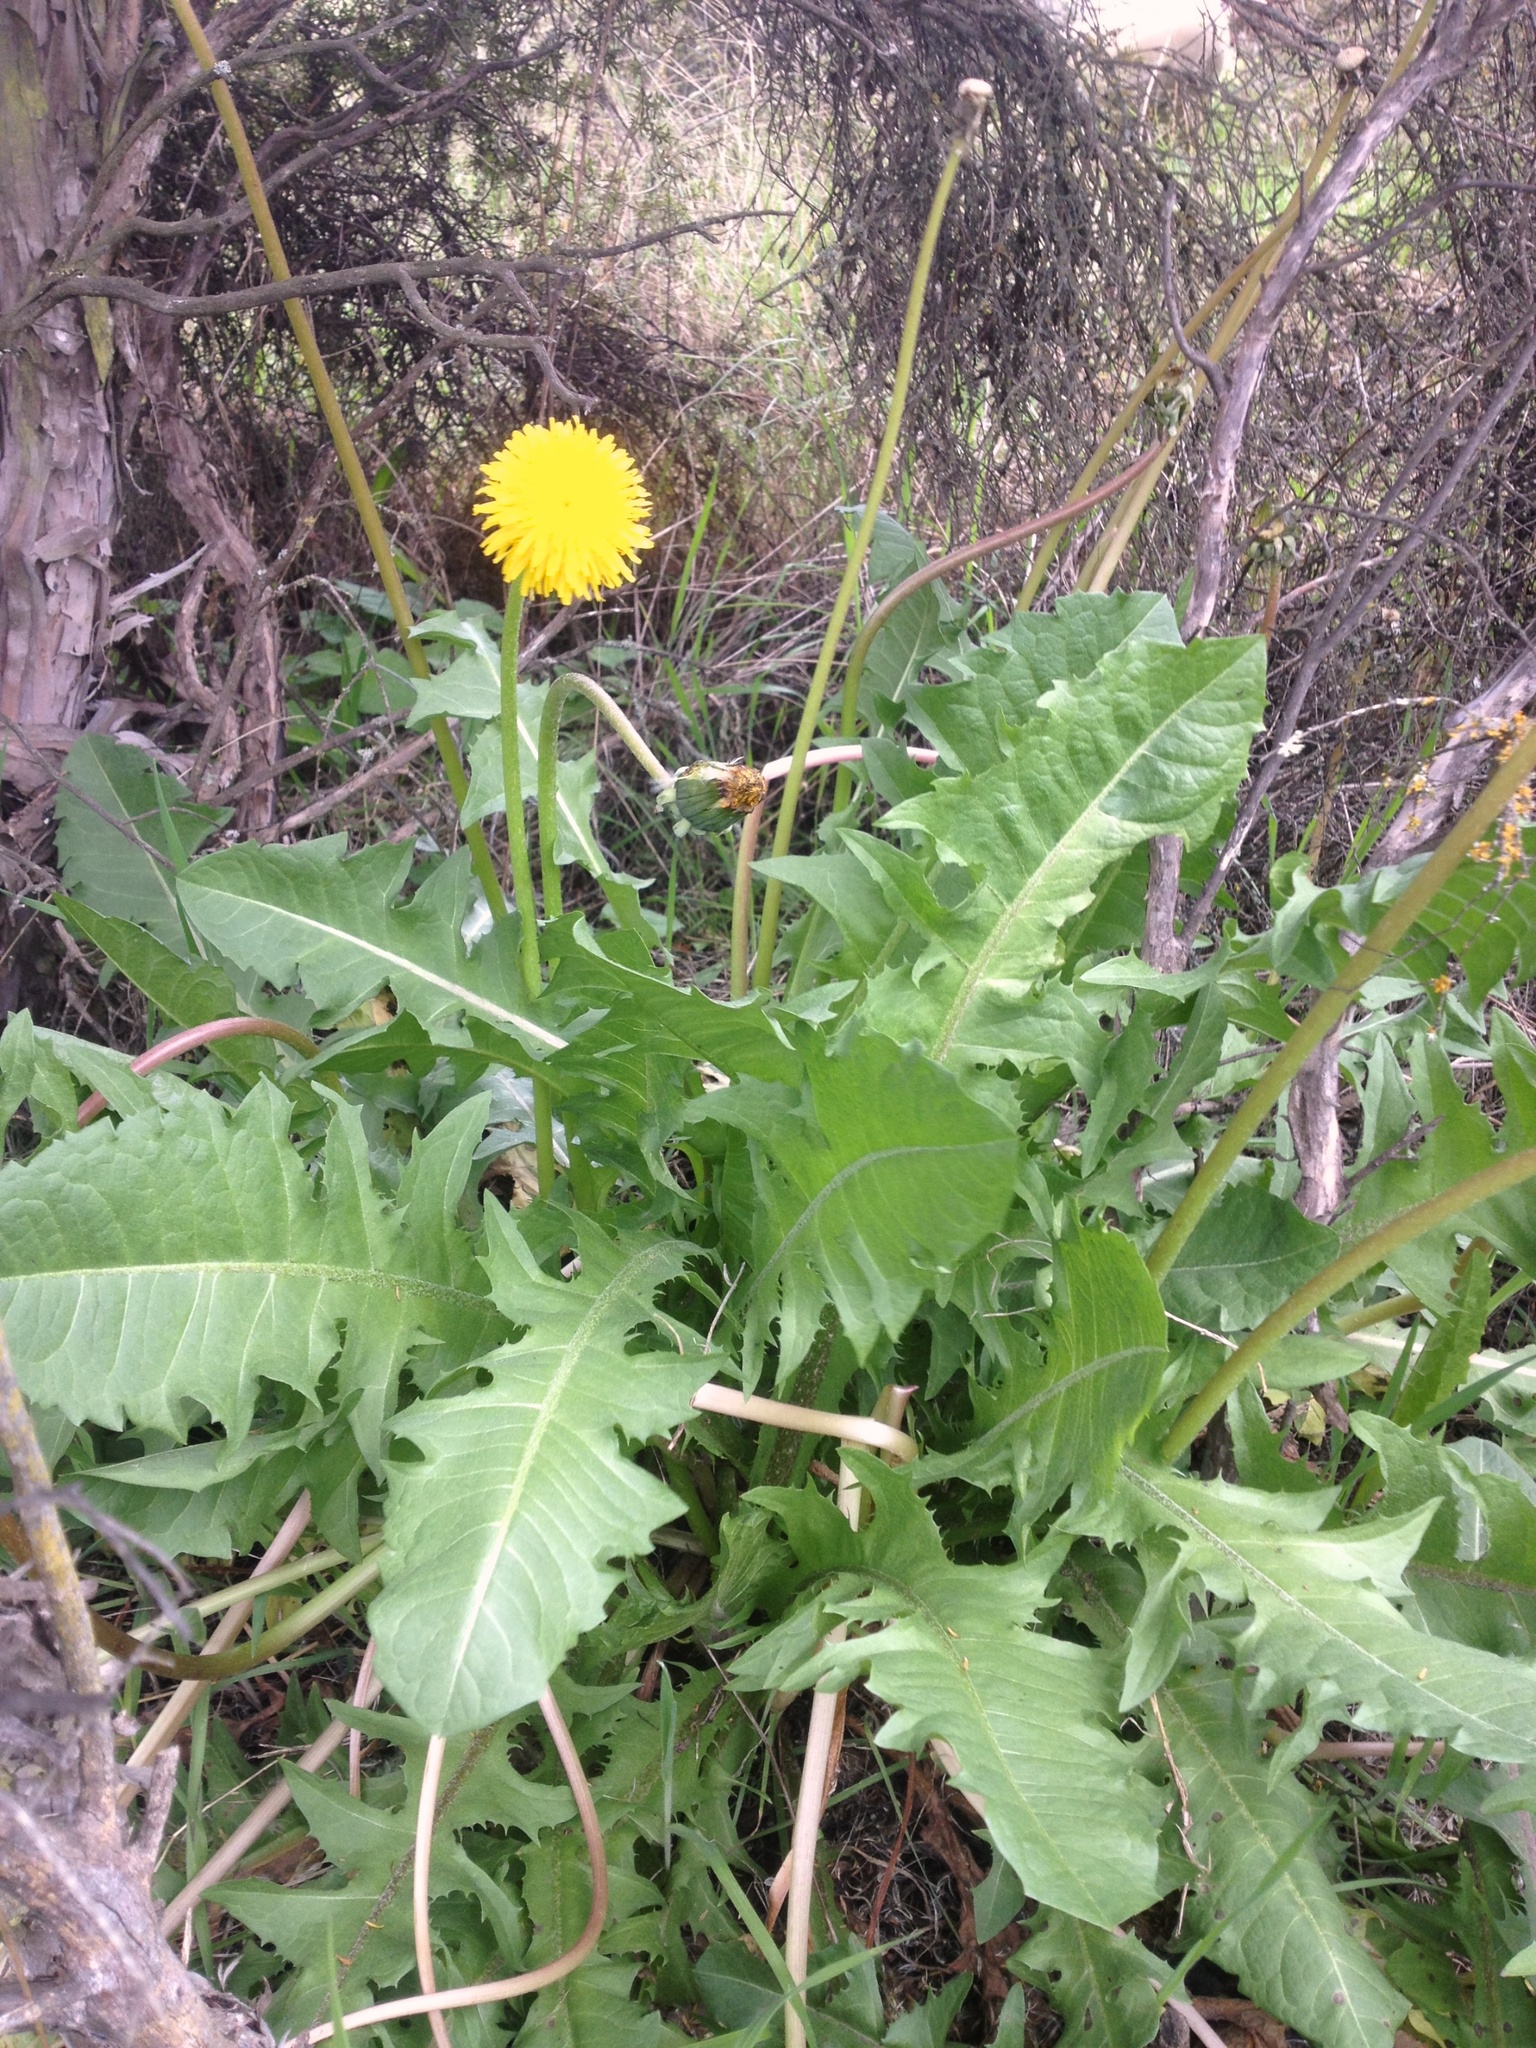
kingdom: Plantae
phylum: Tracheophyta
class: Magnoliopsida
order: Asterales
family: Asteraceae
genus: Taraxacum
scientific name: Taraxacum officinale
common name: Common dandelion
